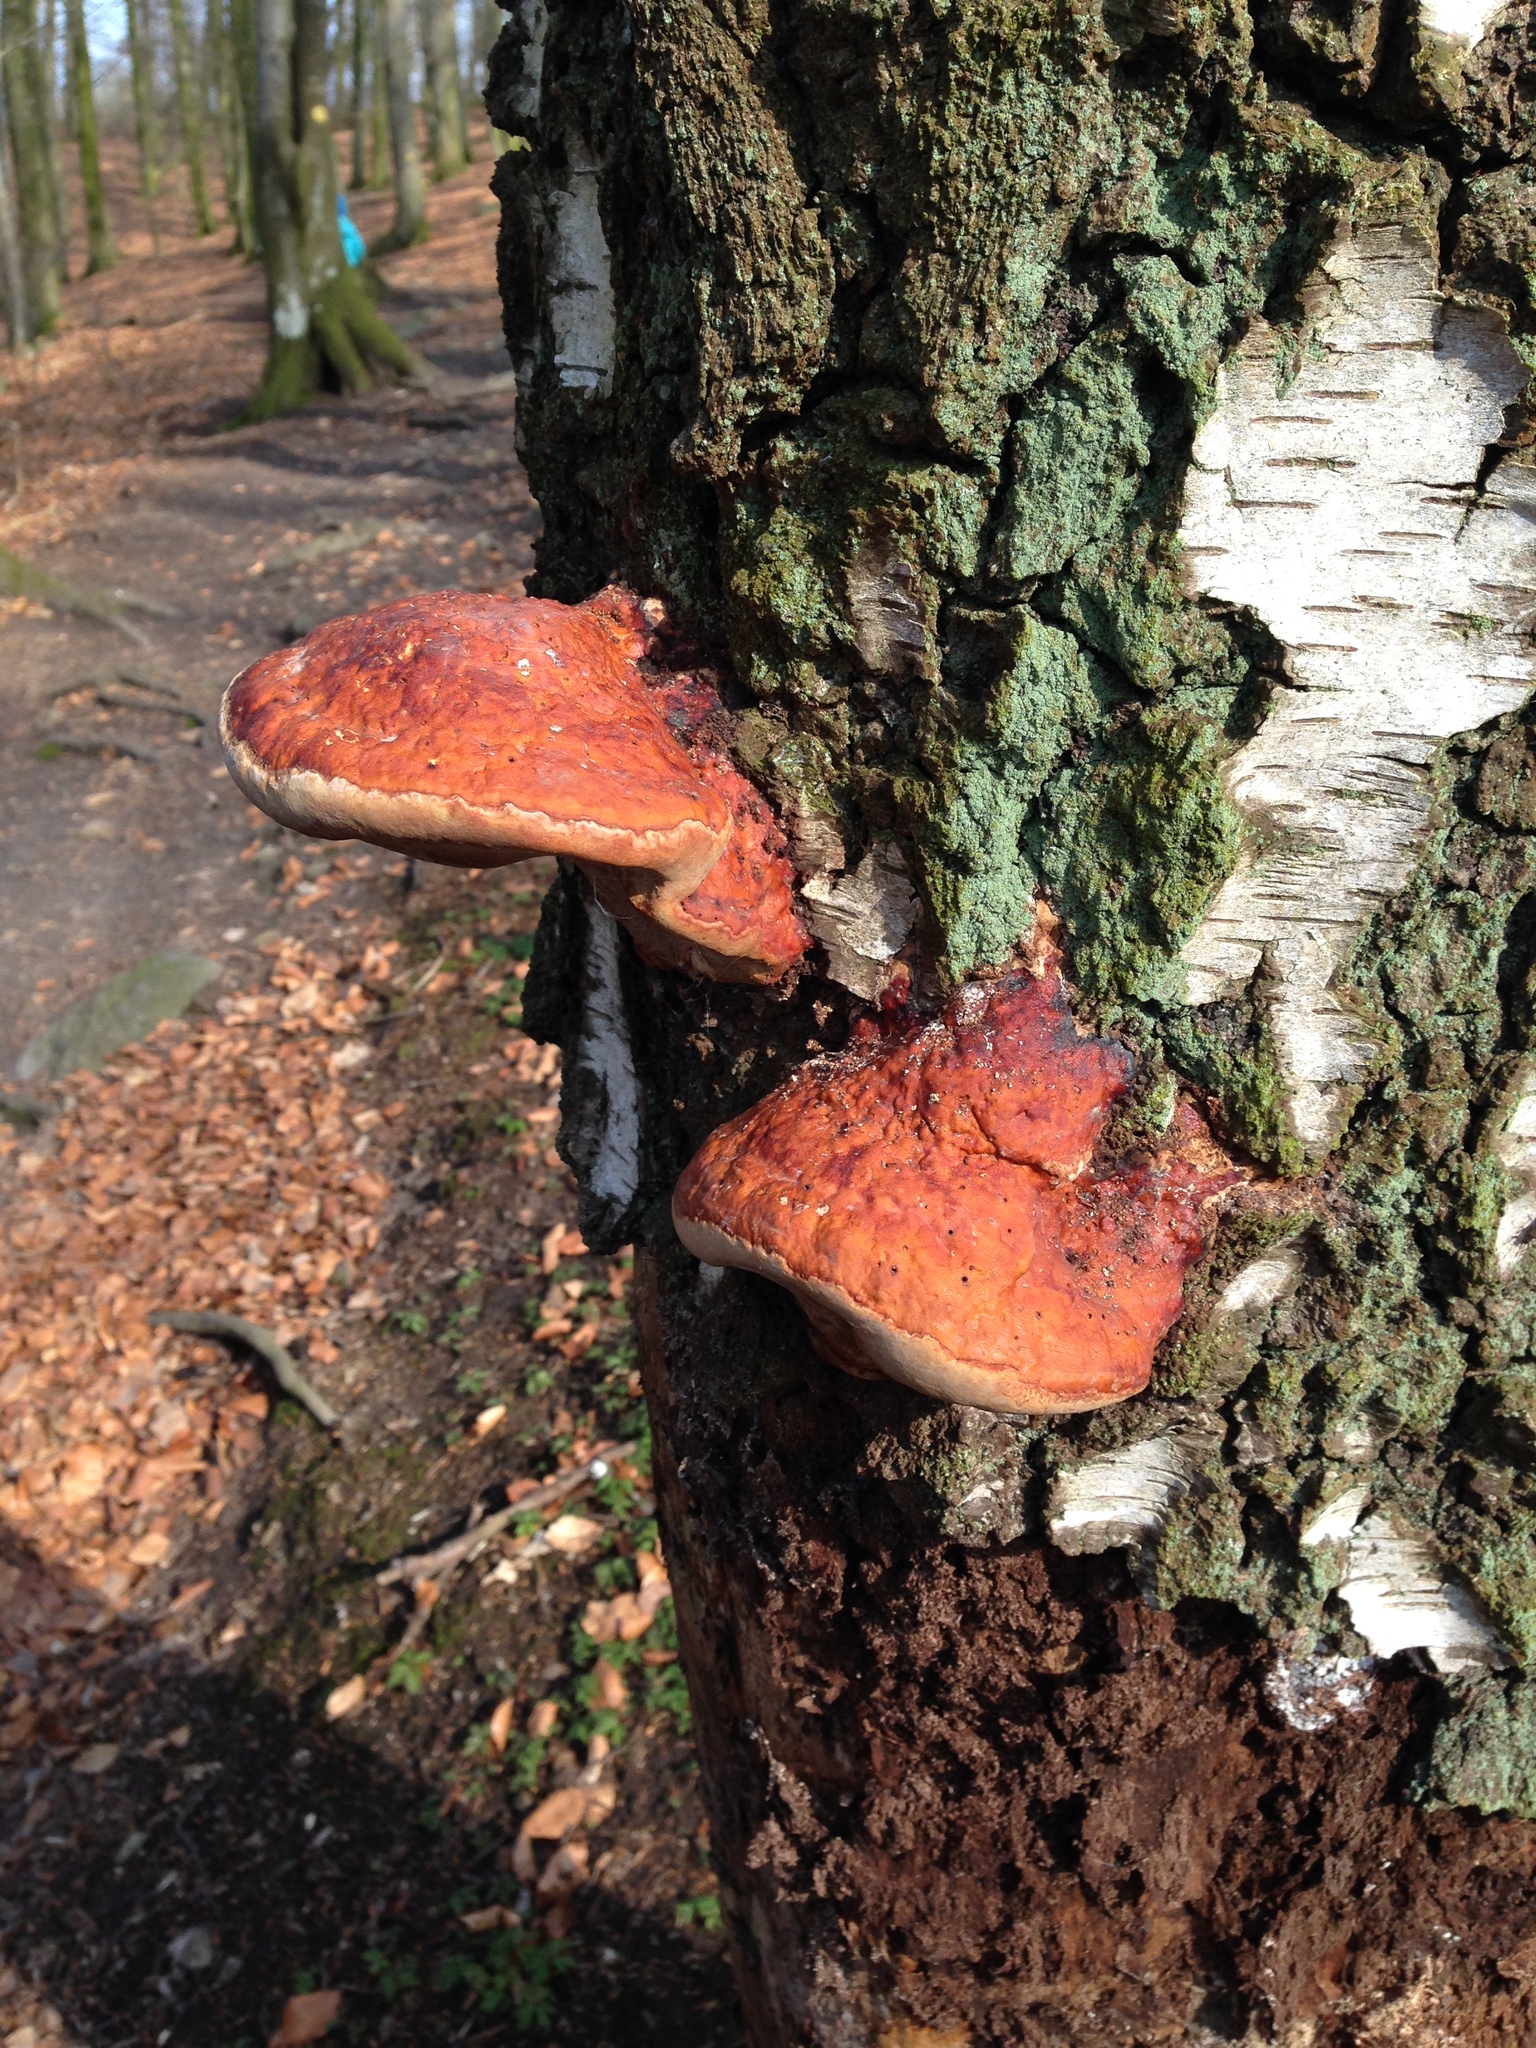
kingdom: Fungi
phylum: Basidiomycota
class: Agaricomycetes
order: Polyporales
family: Fomitopsidaceae
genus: Fomitopsis
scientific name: Fomitopsis pinicola
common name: Red-belted bracket
